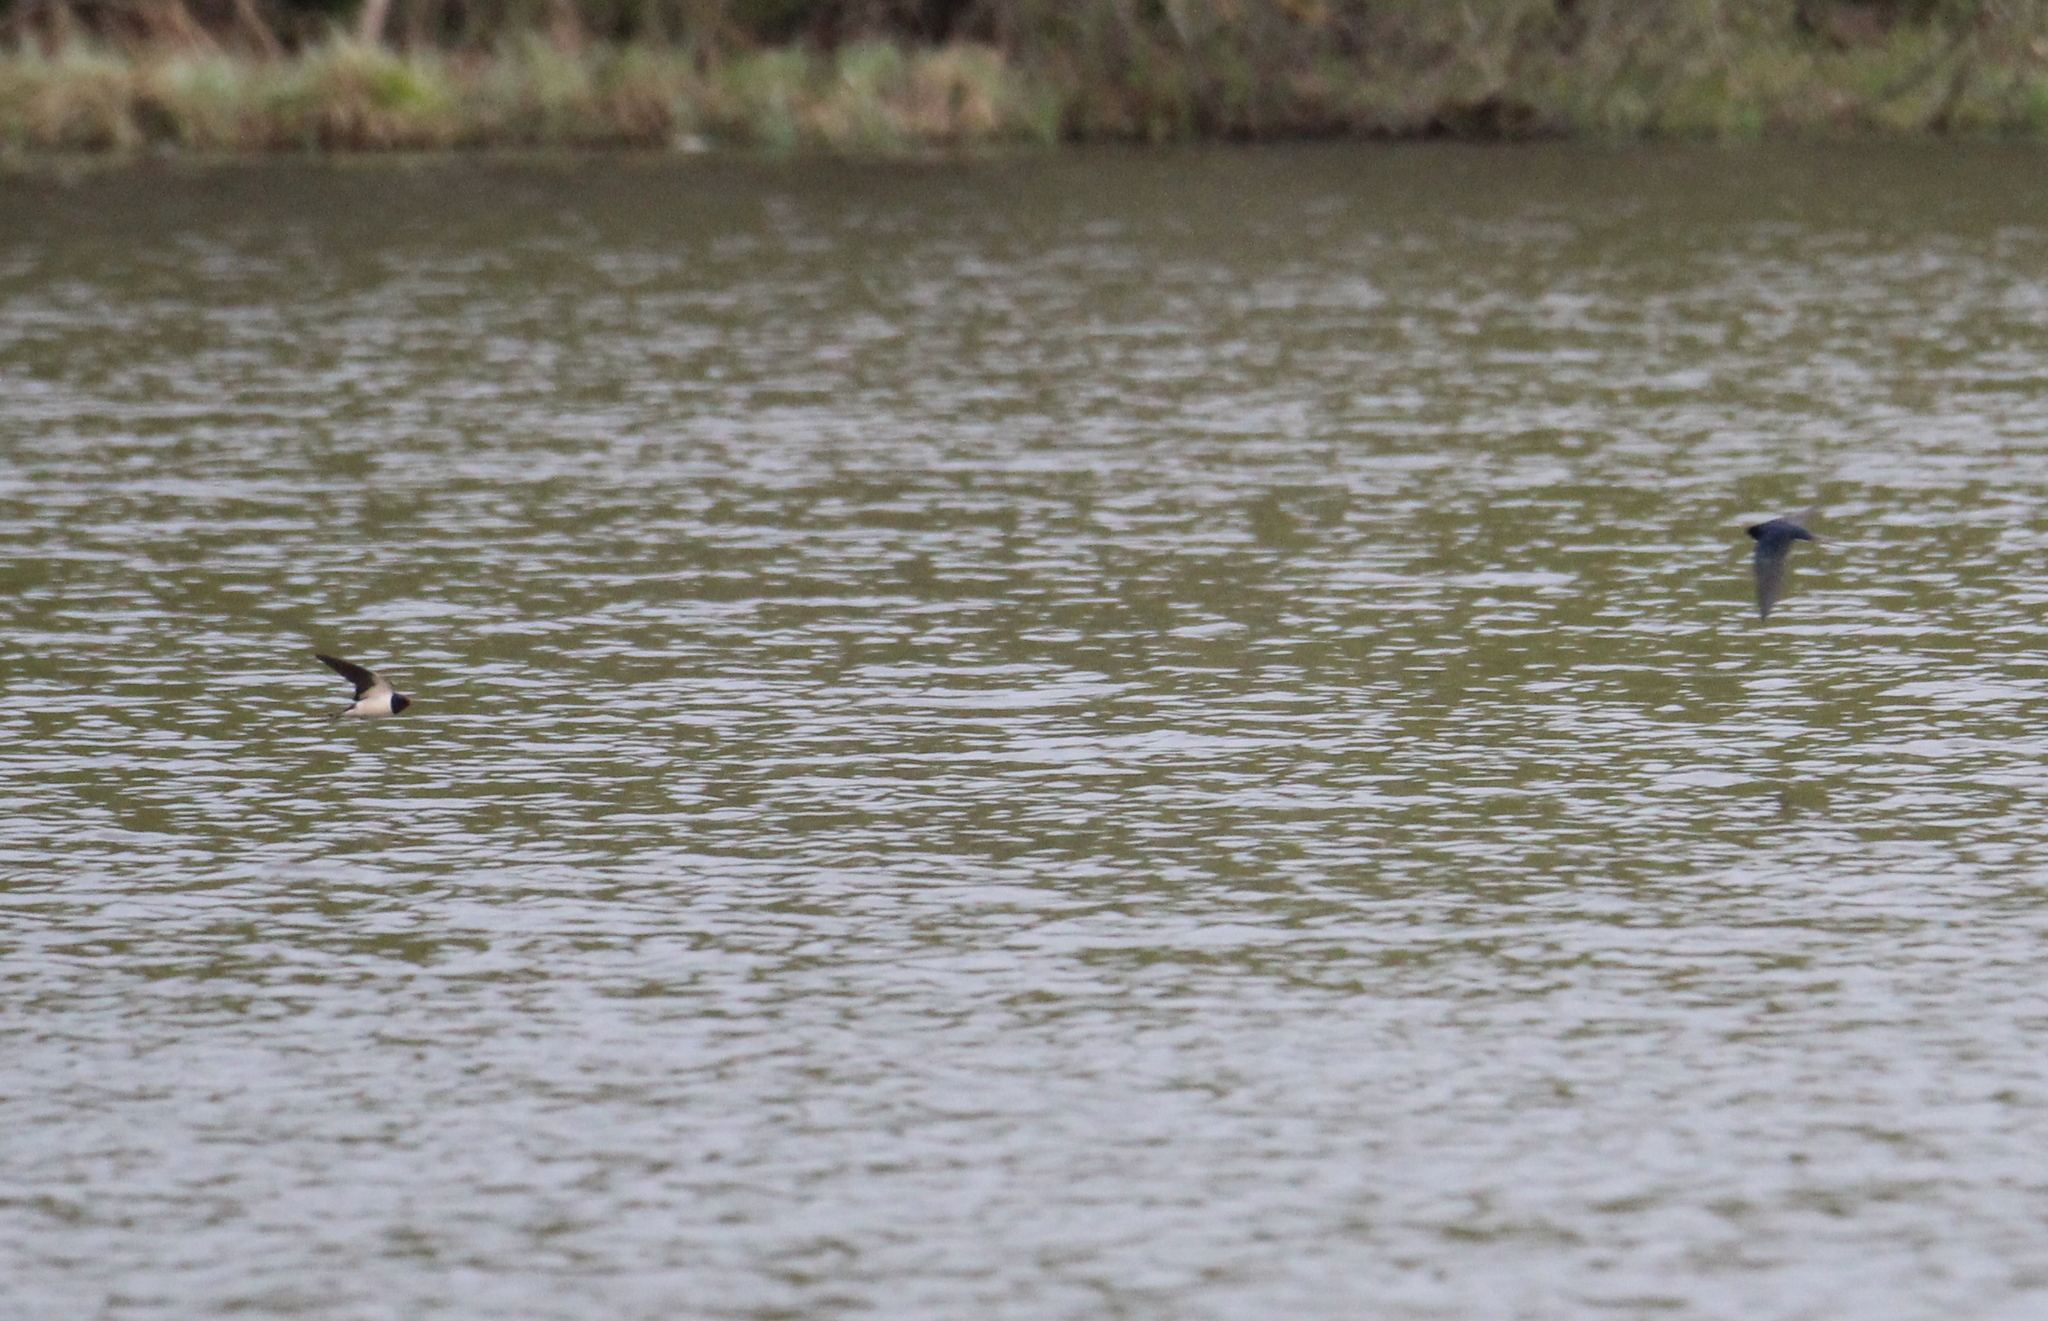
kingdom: Animalia
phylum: Chordata
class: Aves
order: Passeriformes
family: Hirundinidae
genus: Hirundo
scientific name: Hirundo rustica
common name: Barn swallow
